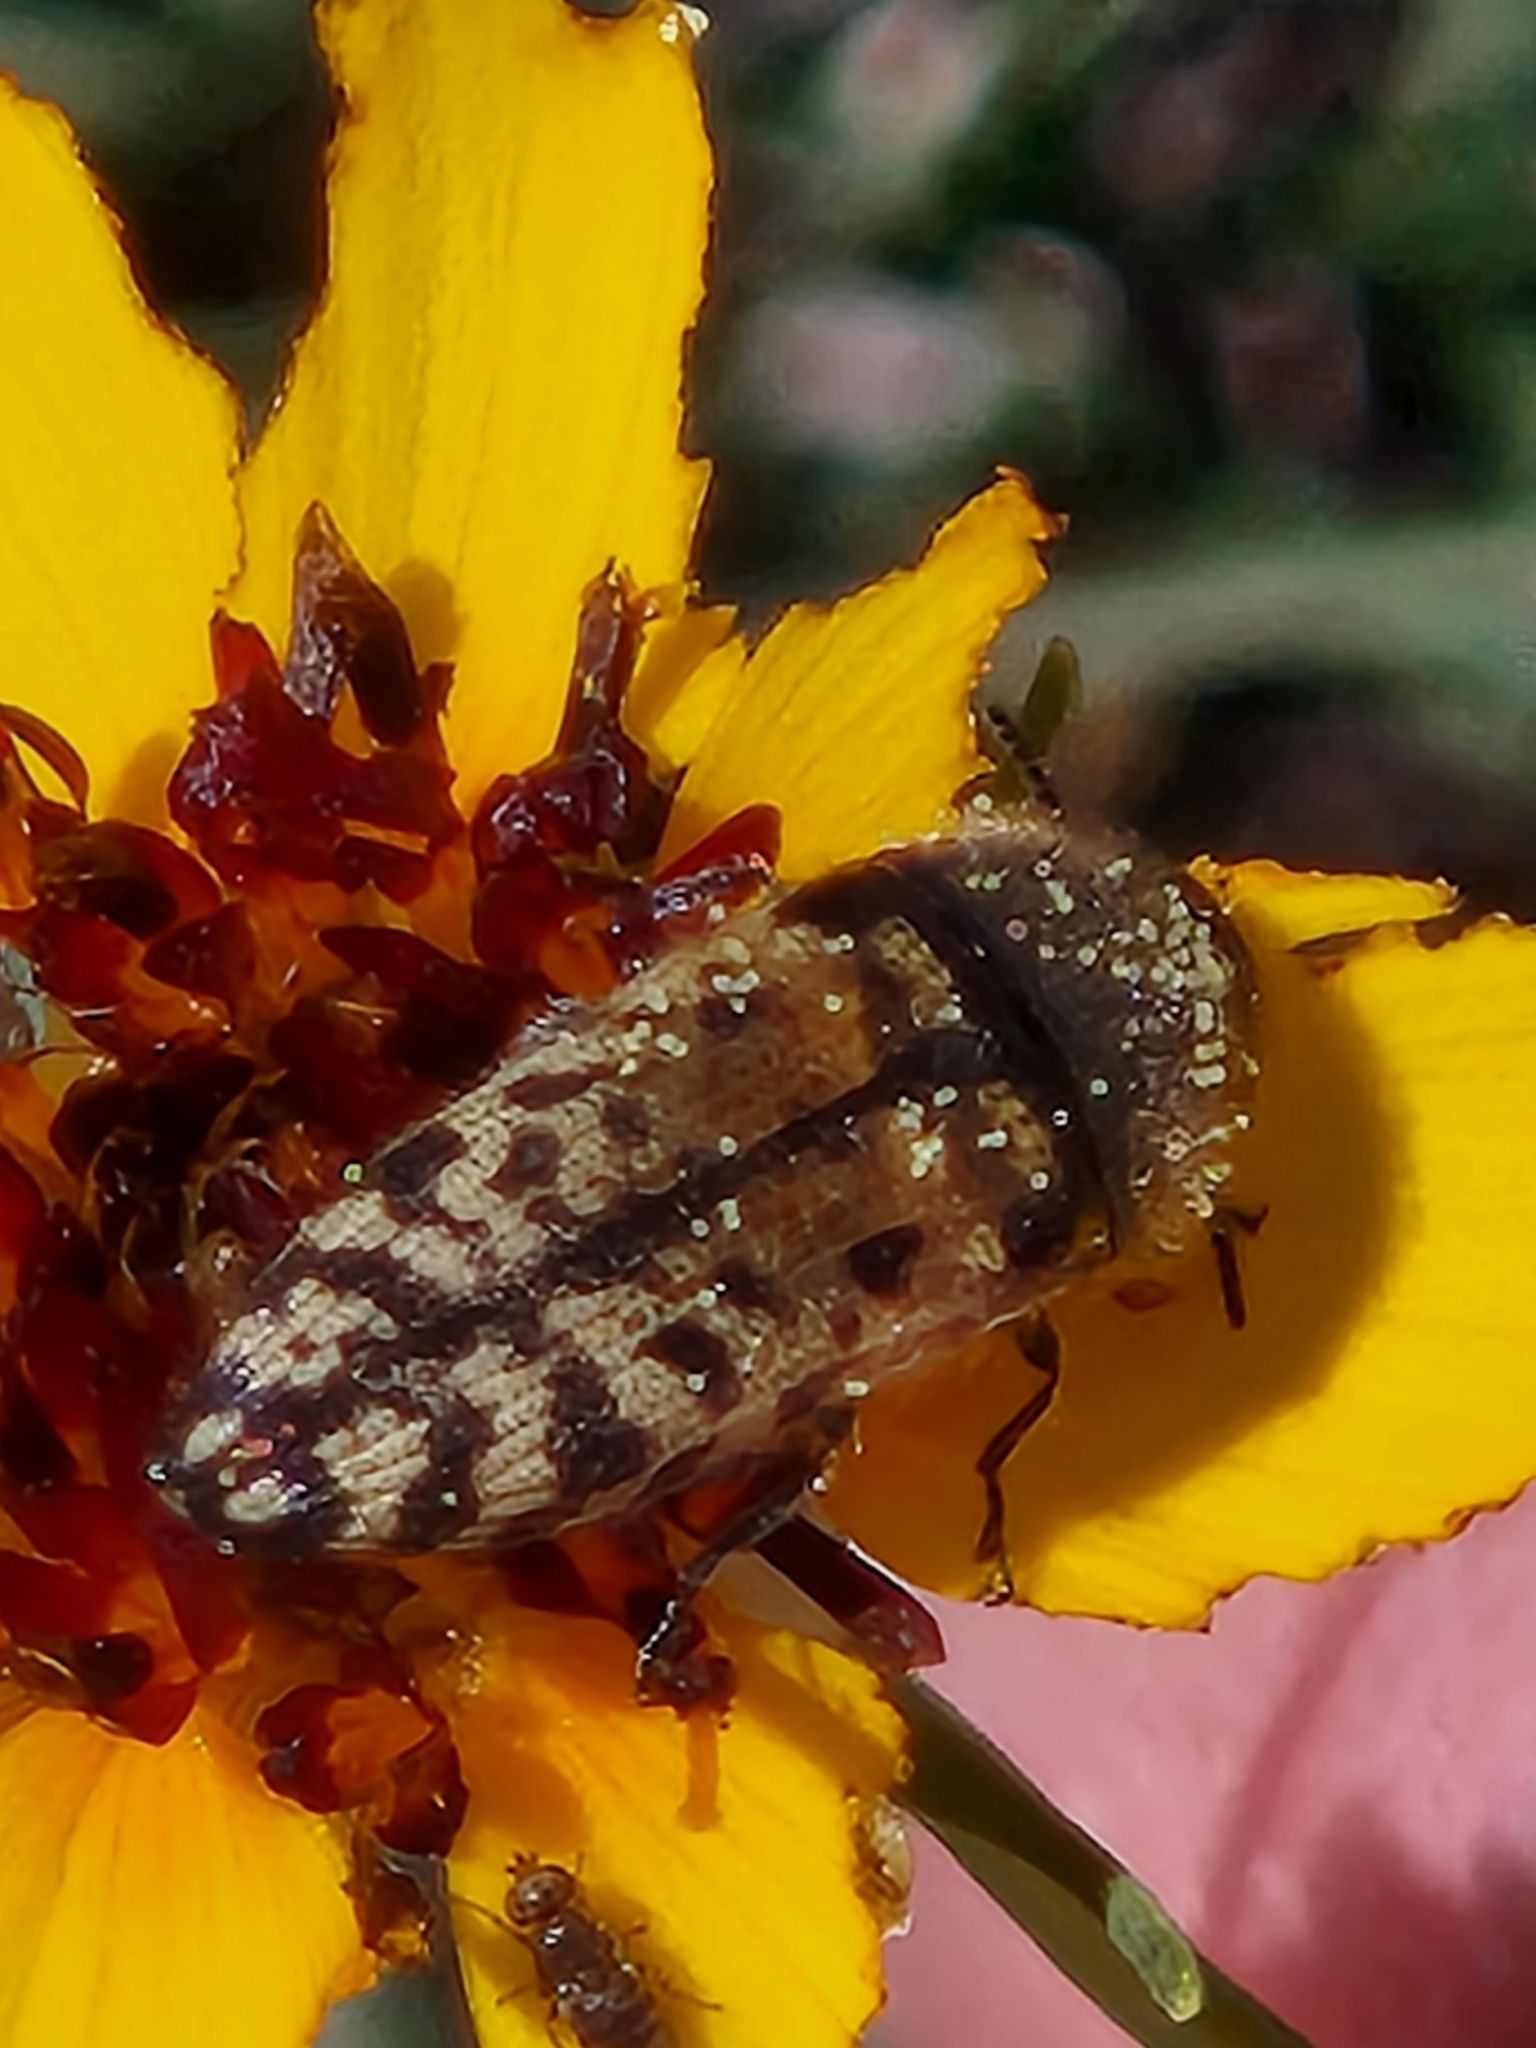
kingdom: Animalia
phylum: Arthropoda
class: Insecta
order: Coleoptera
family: Buprestidae
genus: Acmaeodera
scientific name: Acmaeodera mixta
